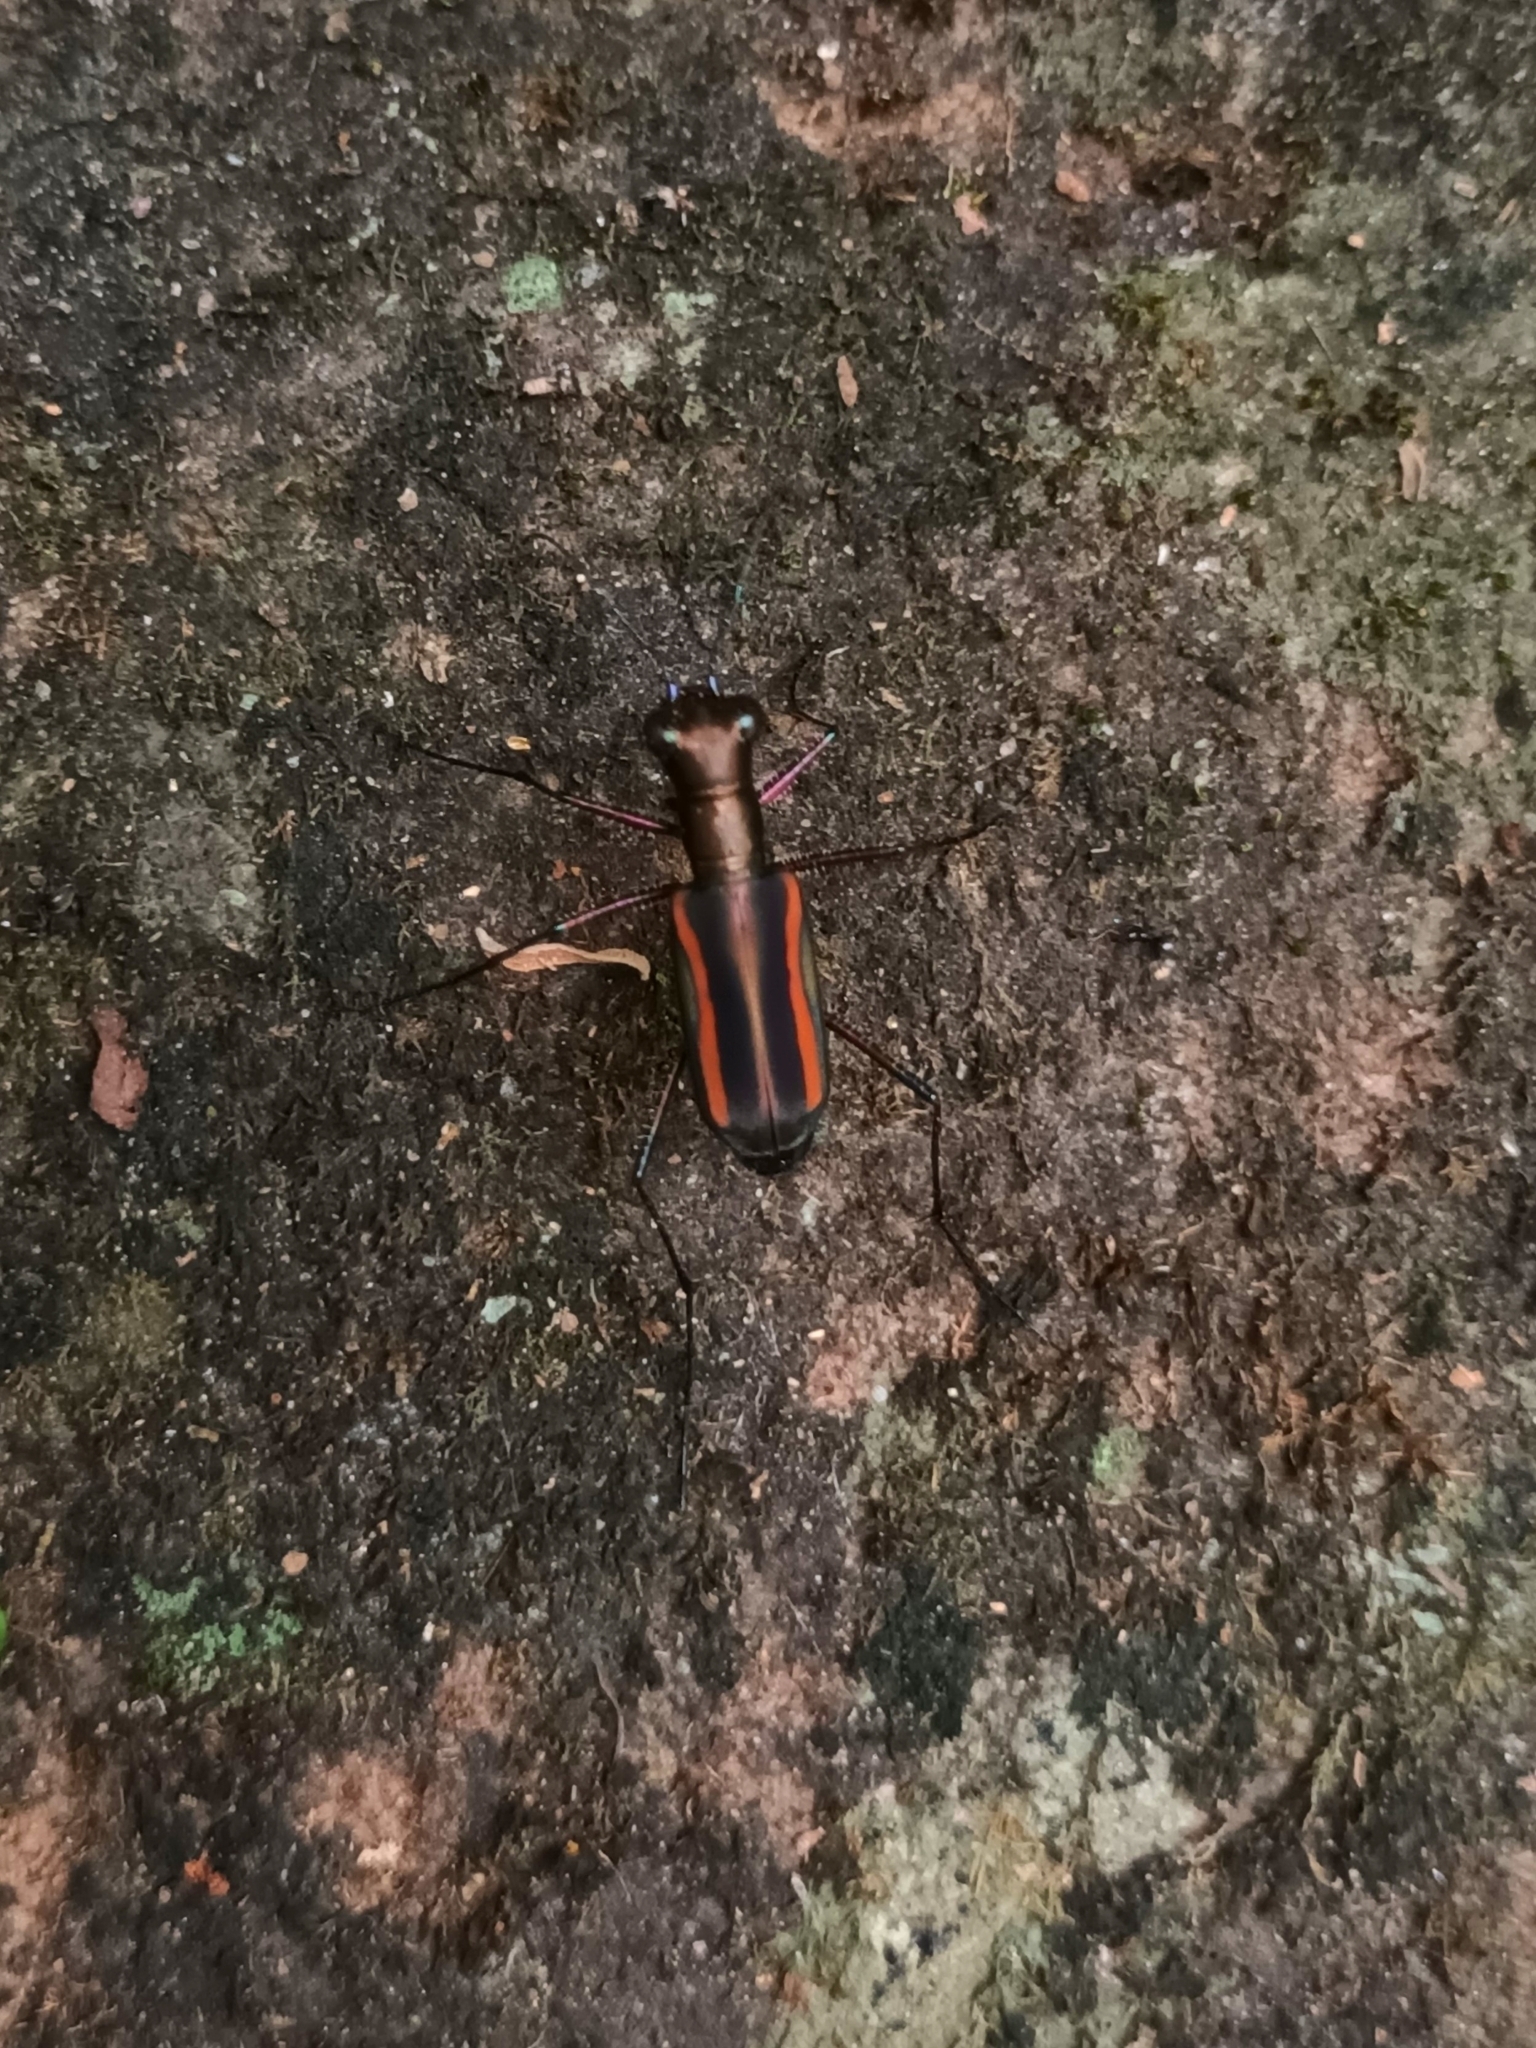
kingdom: Animalia
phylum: Arthropoda
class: Insecta
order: Coleoptera
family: Carabidae
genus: Cicindela
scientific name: Cicindela hamiltoniana
